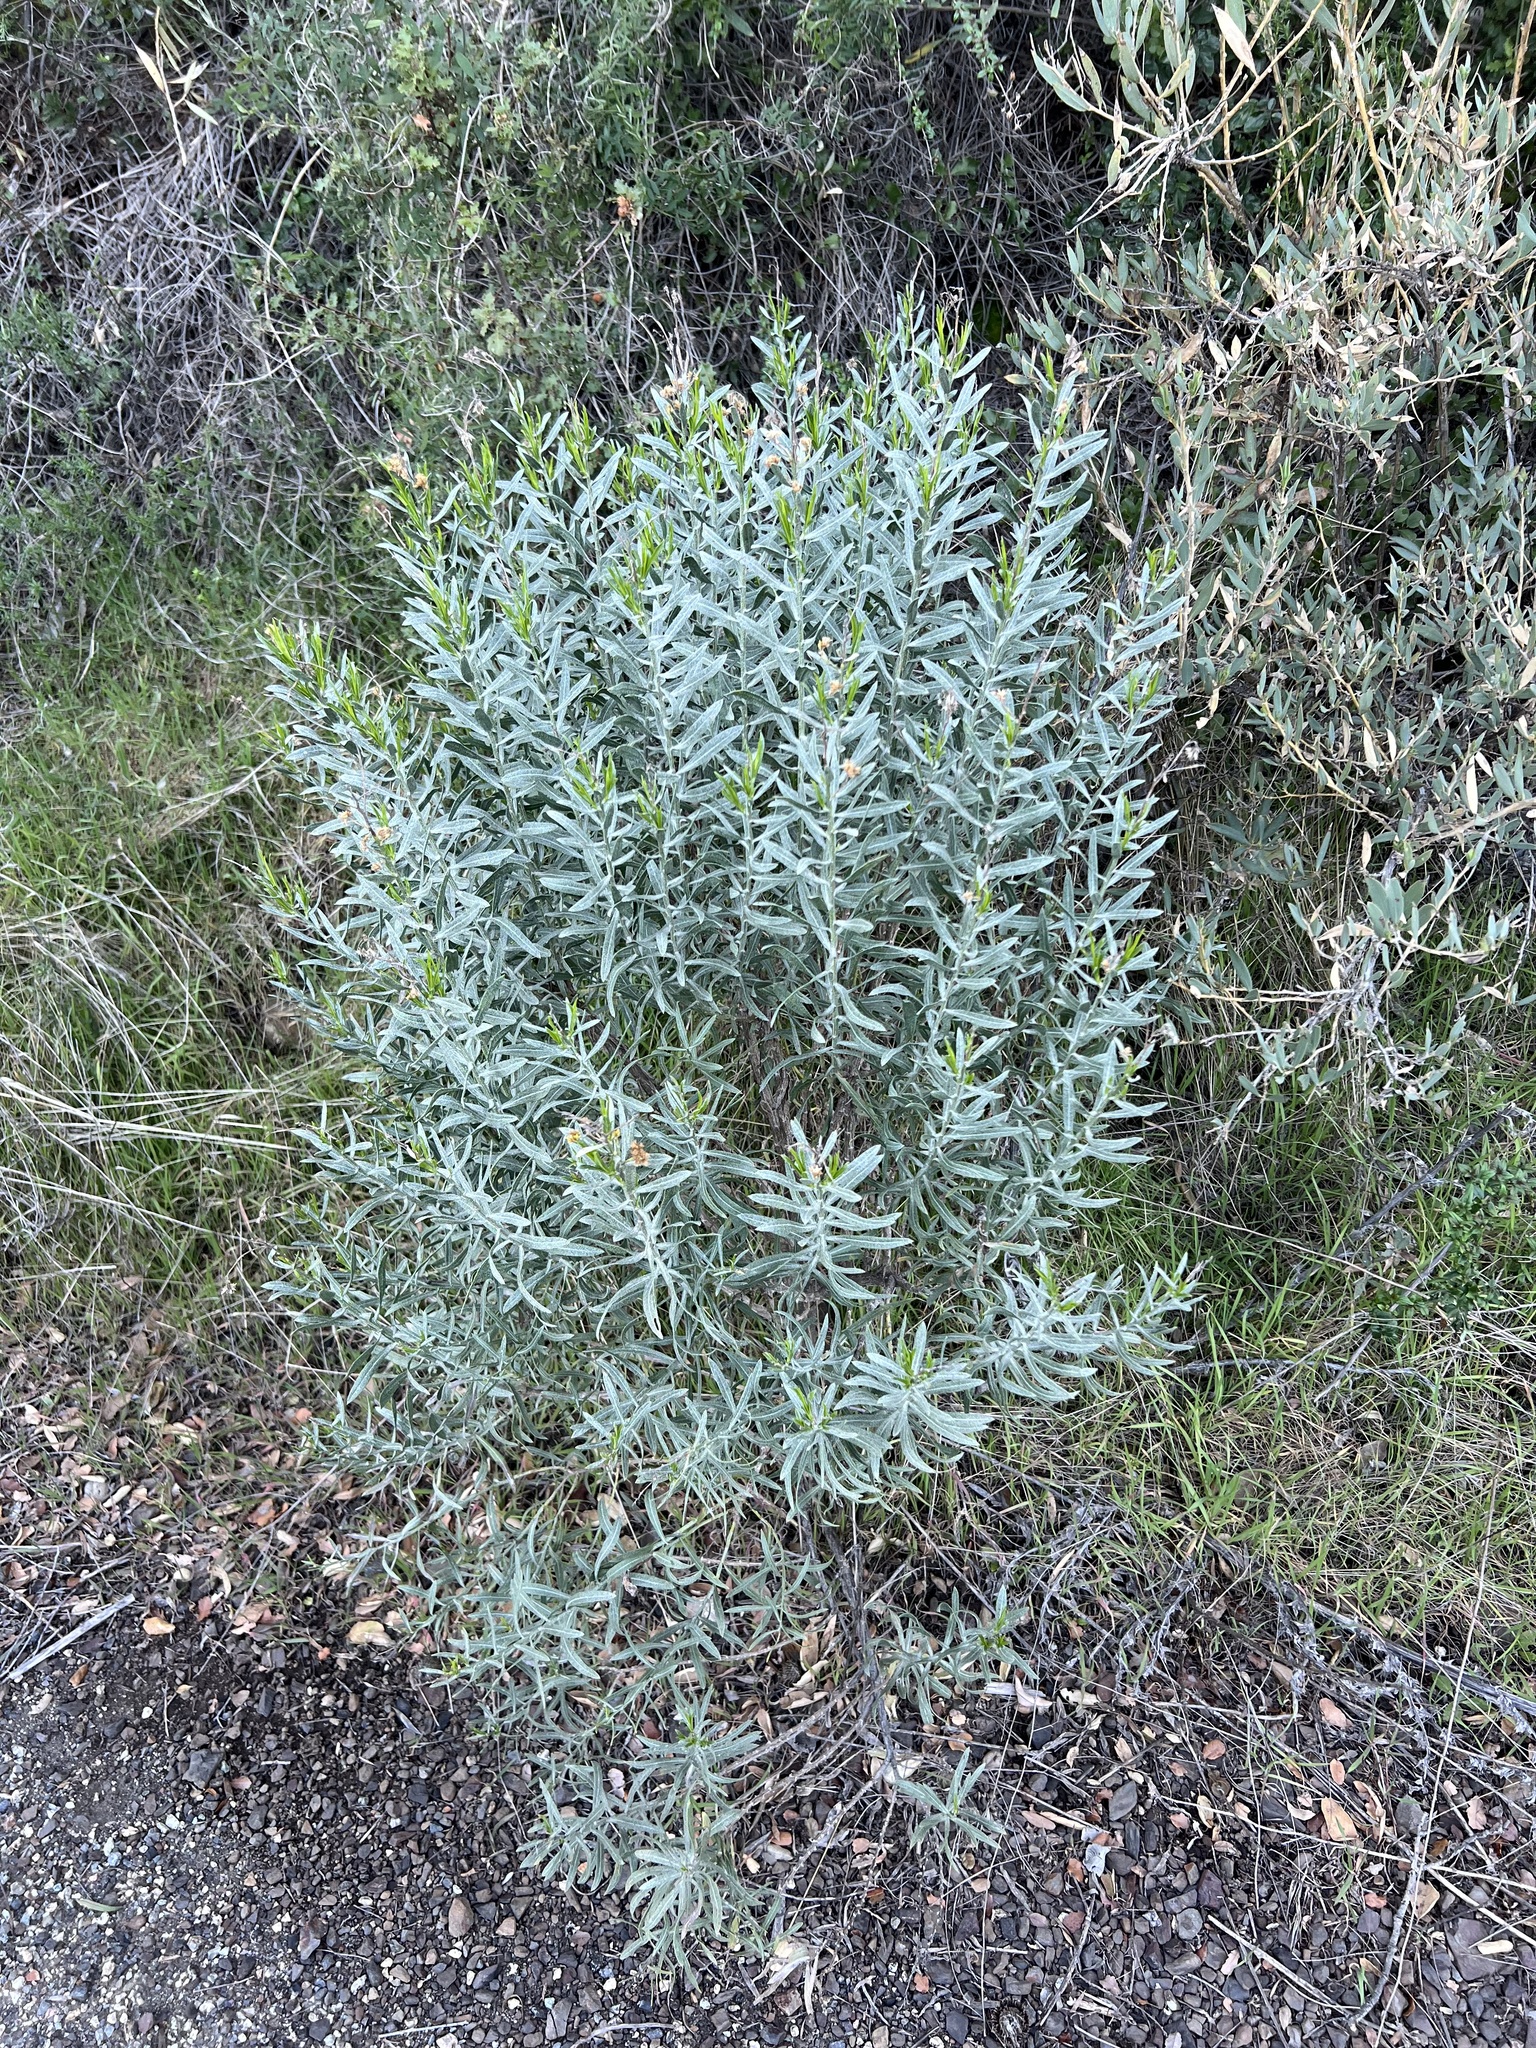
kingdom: Plantae
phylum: Tracheophyta
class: Magnoliopsida
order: Asterales
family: Asteraceae
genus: Ericameria
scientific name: Ericameria parishii
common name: Parish's goldenbush
